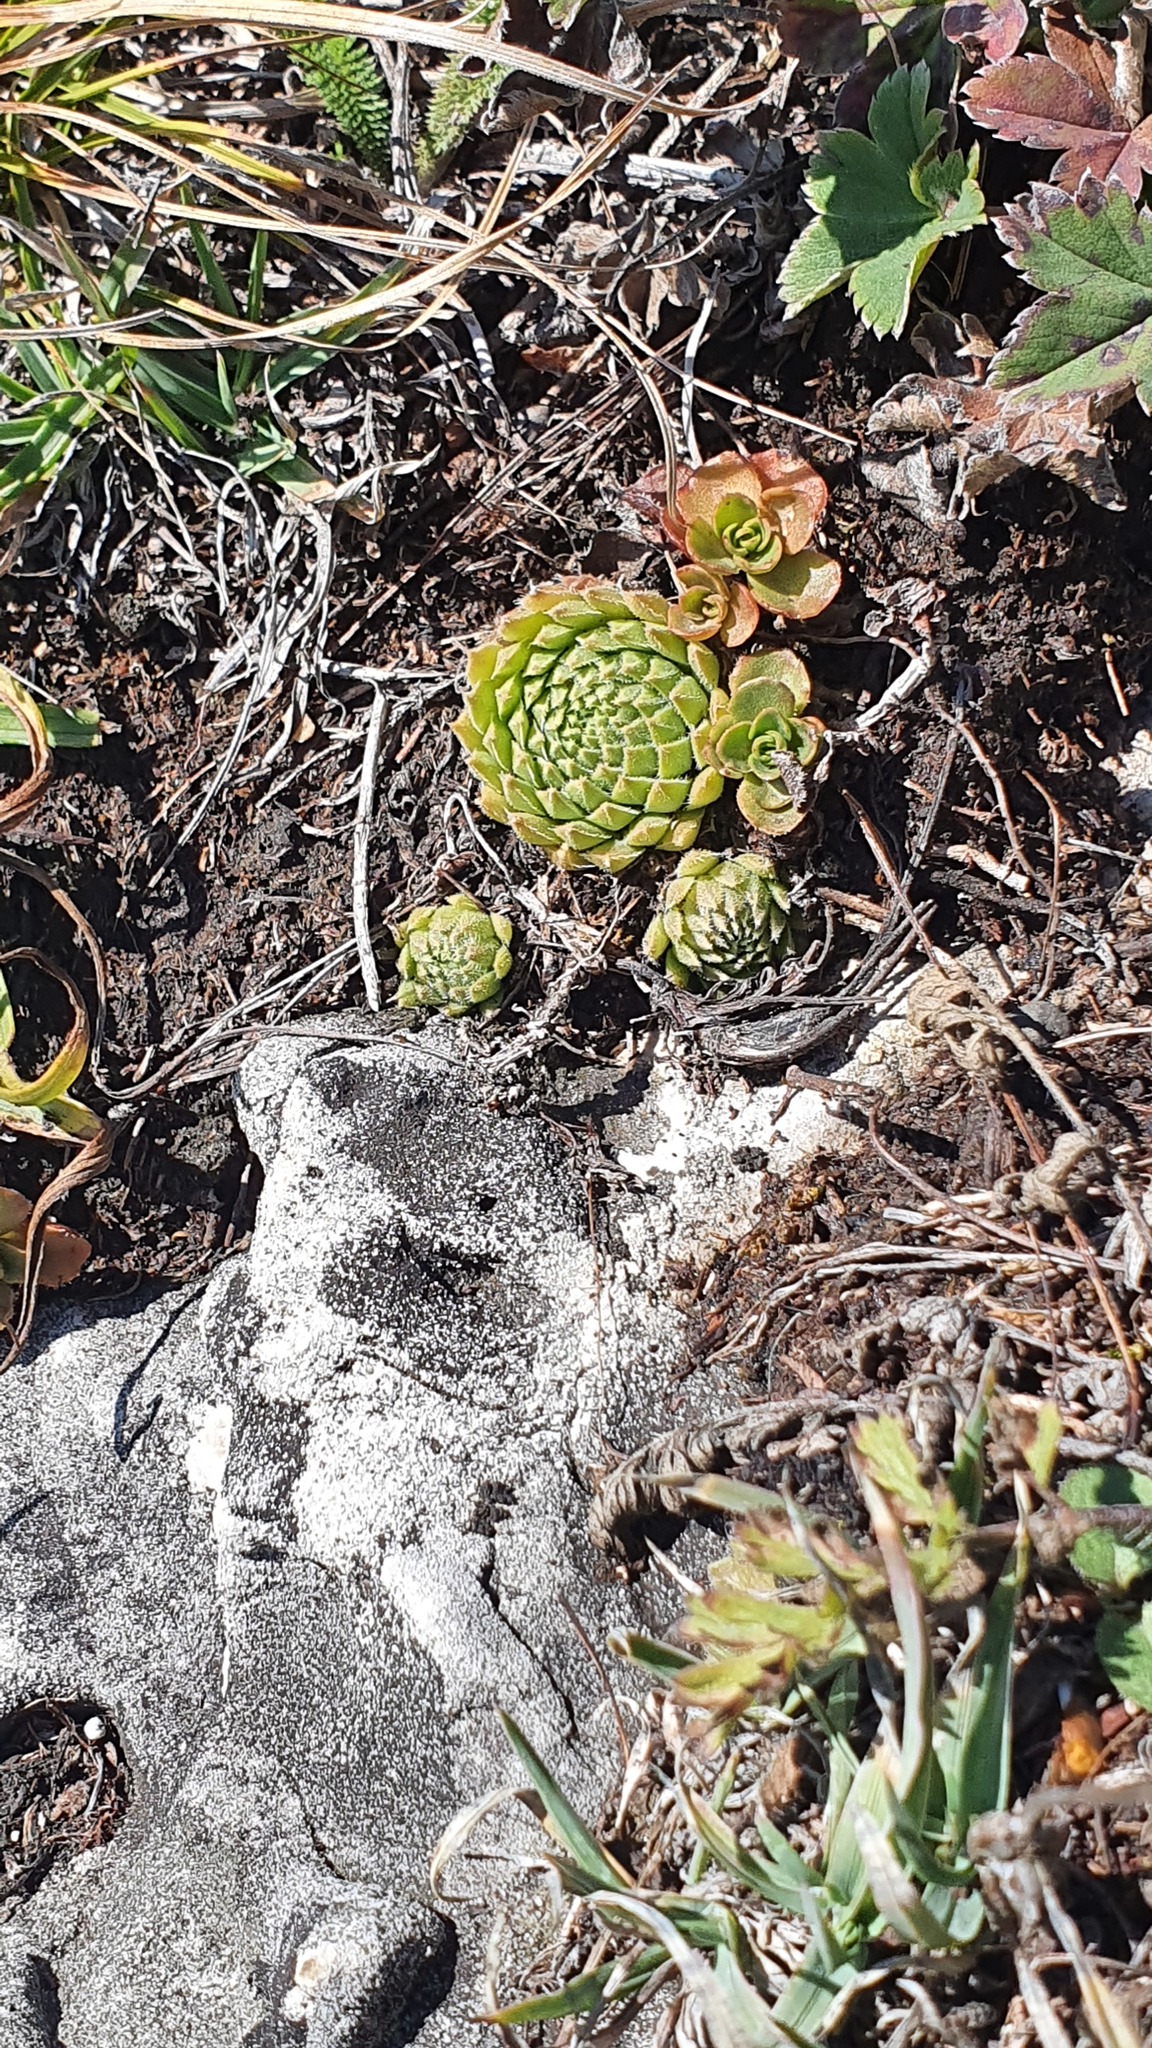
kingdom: Plantae
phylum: Tracheophyta
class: Magnoliopsida
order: Saxifragales
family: Crassulaceae
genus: Sempervivum
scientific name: Sempervivum pumilum
